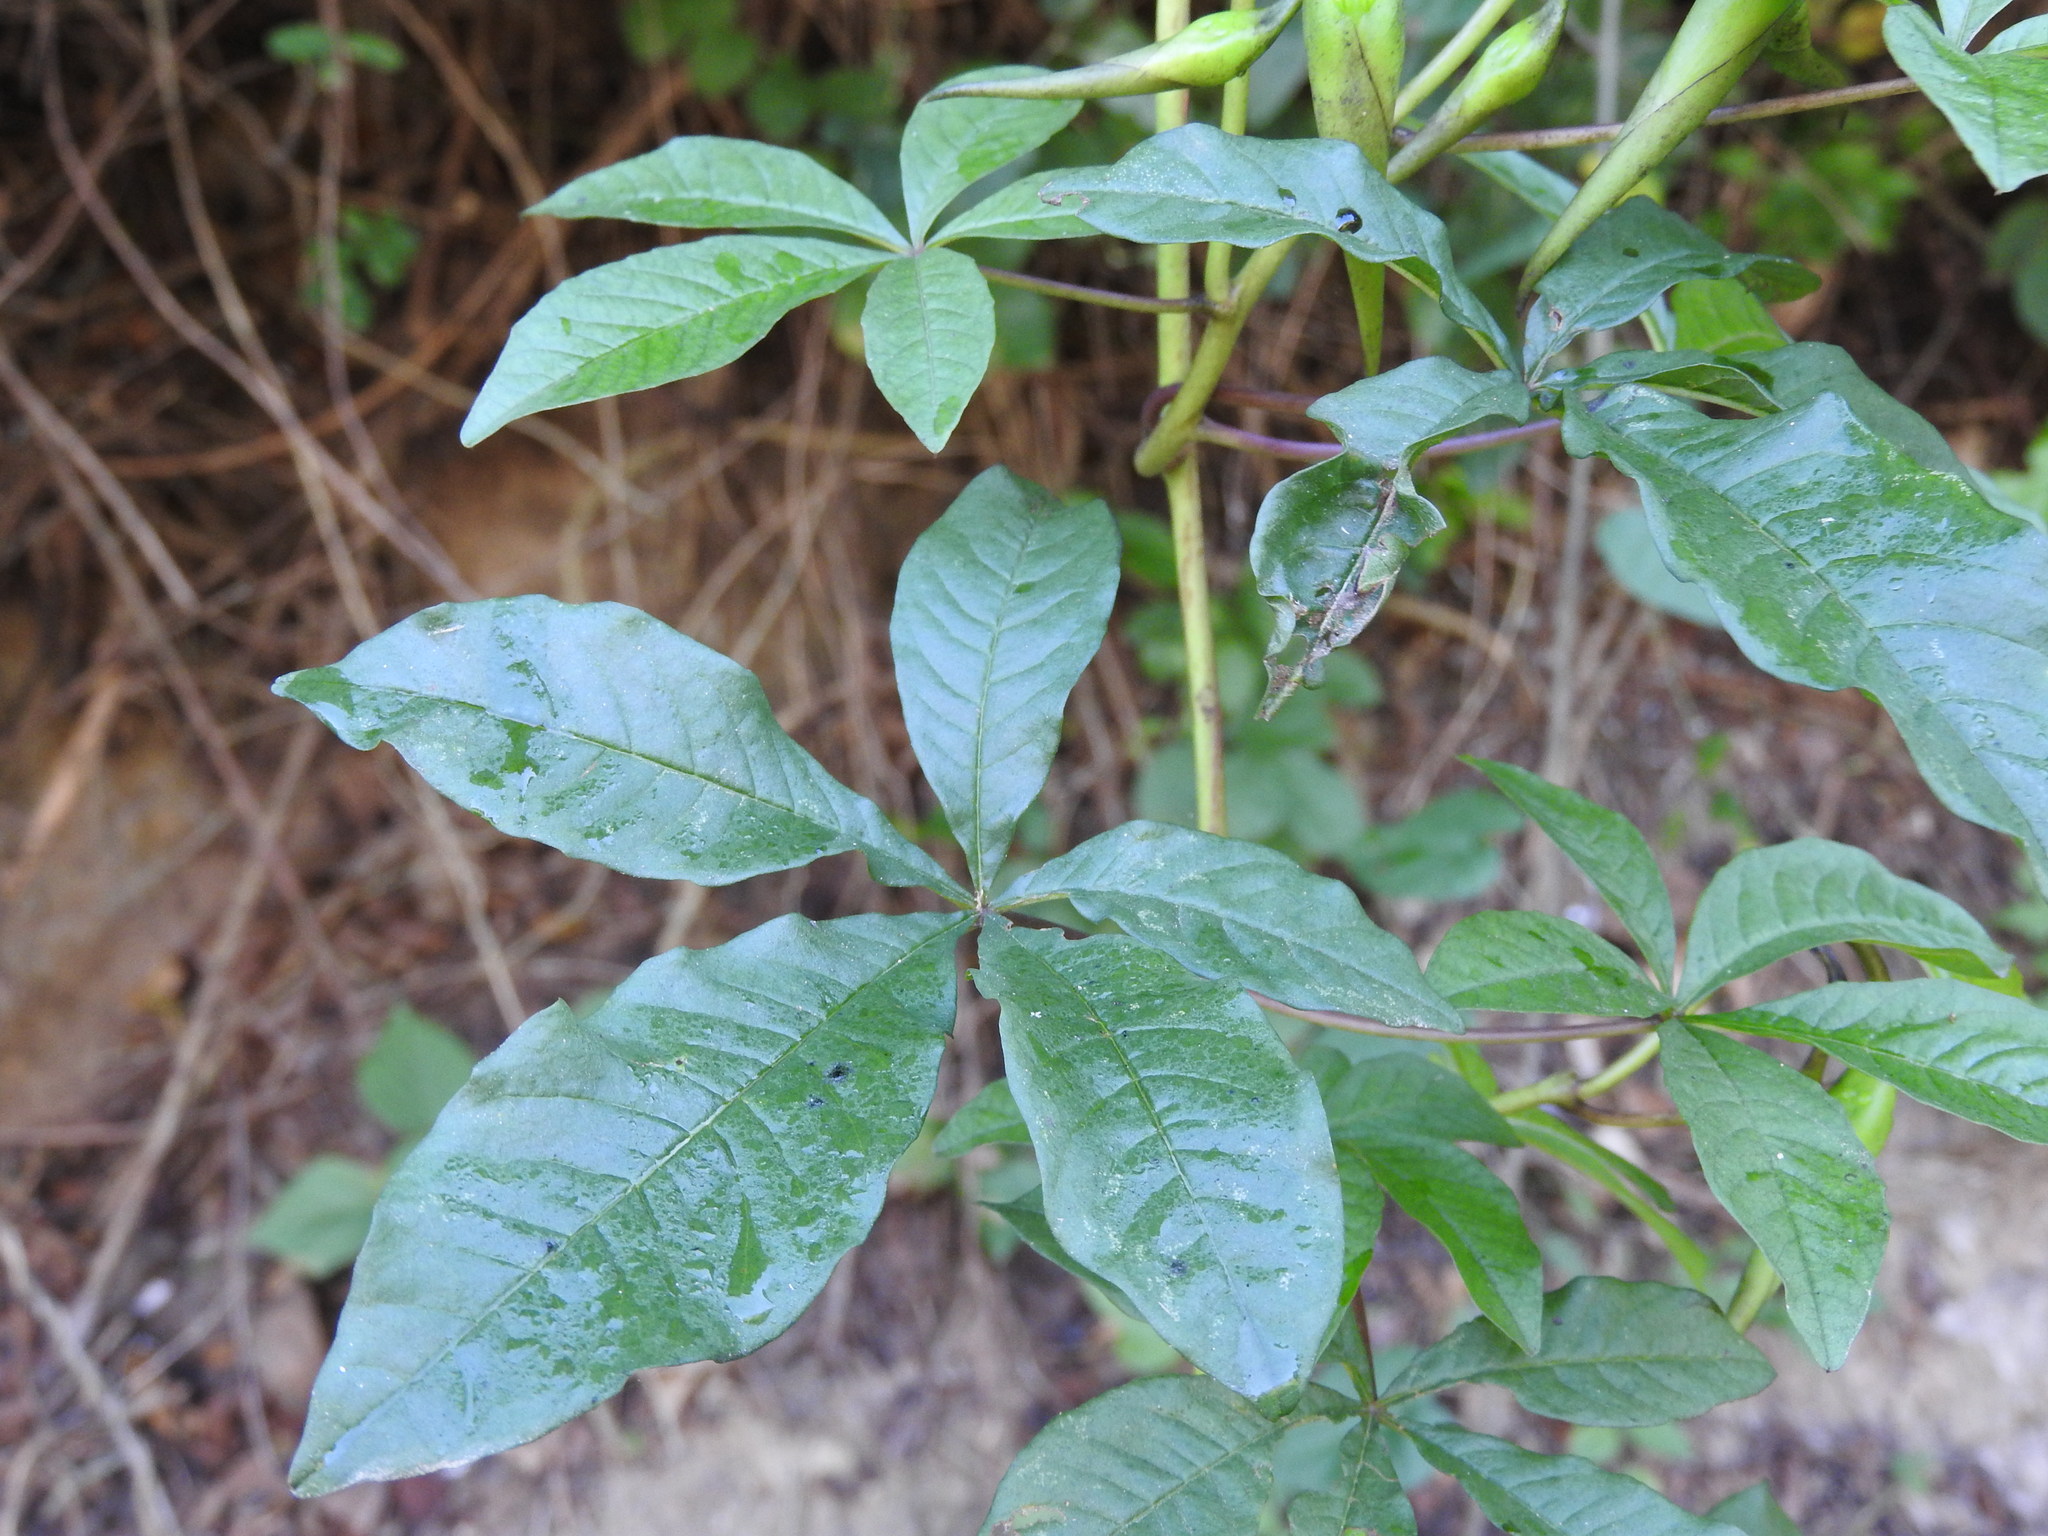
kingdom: Plantae
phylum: Tracheophyta
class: Magnoliopsida
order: Solanales
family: Convolvulaceae
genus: Operculina
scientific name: Operculina platyphylla
